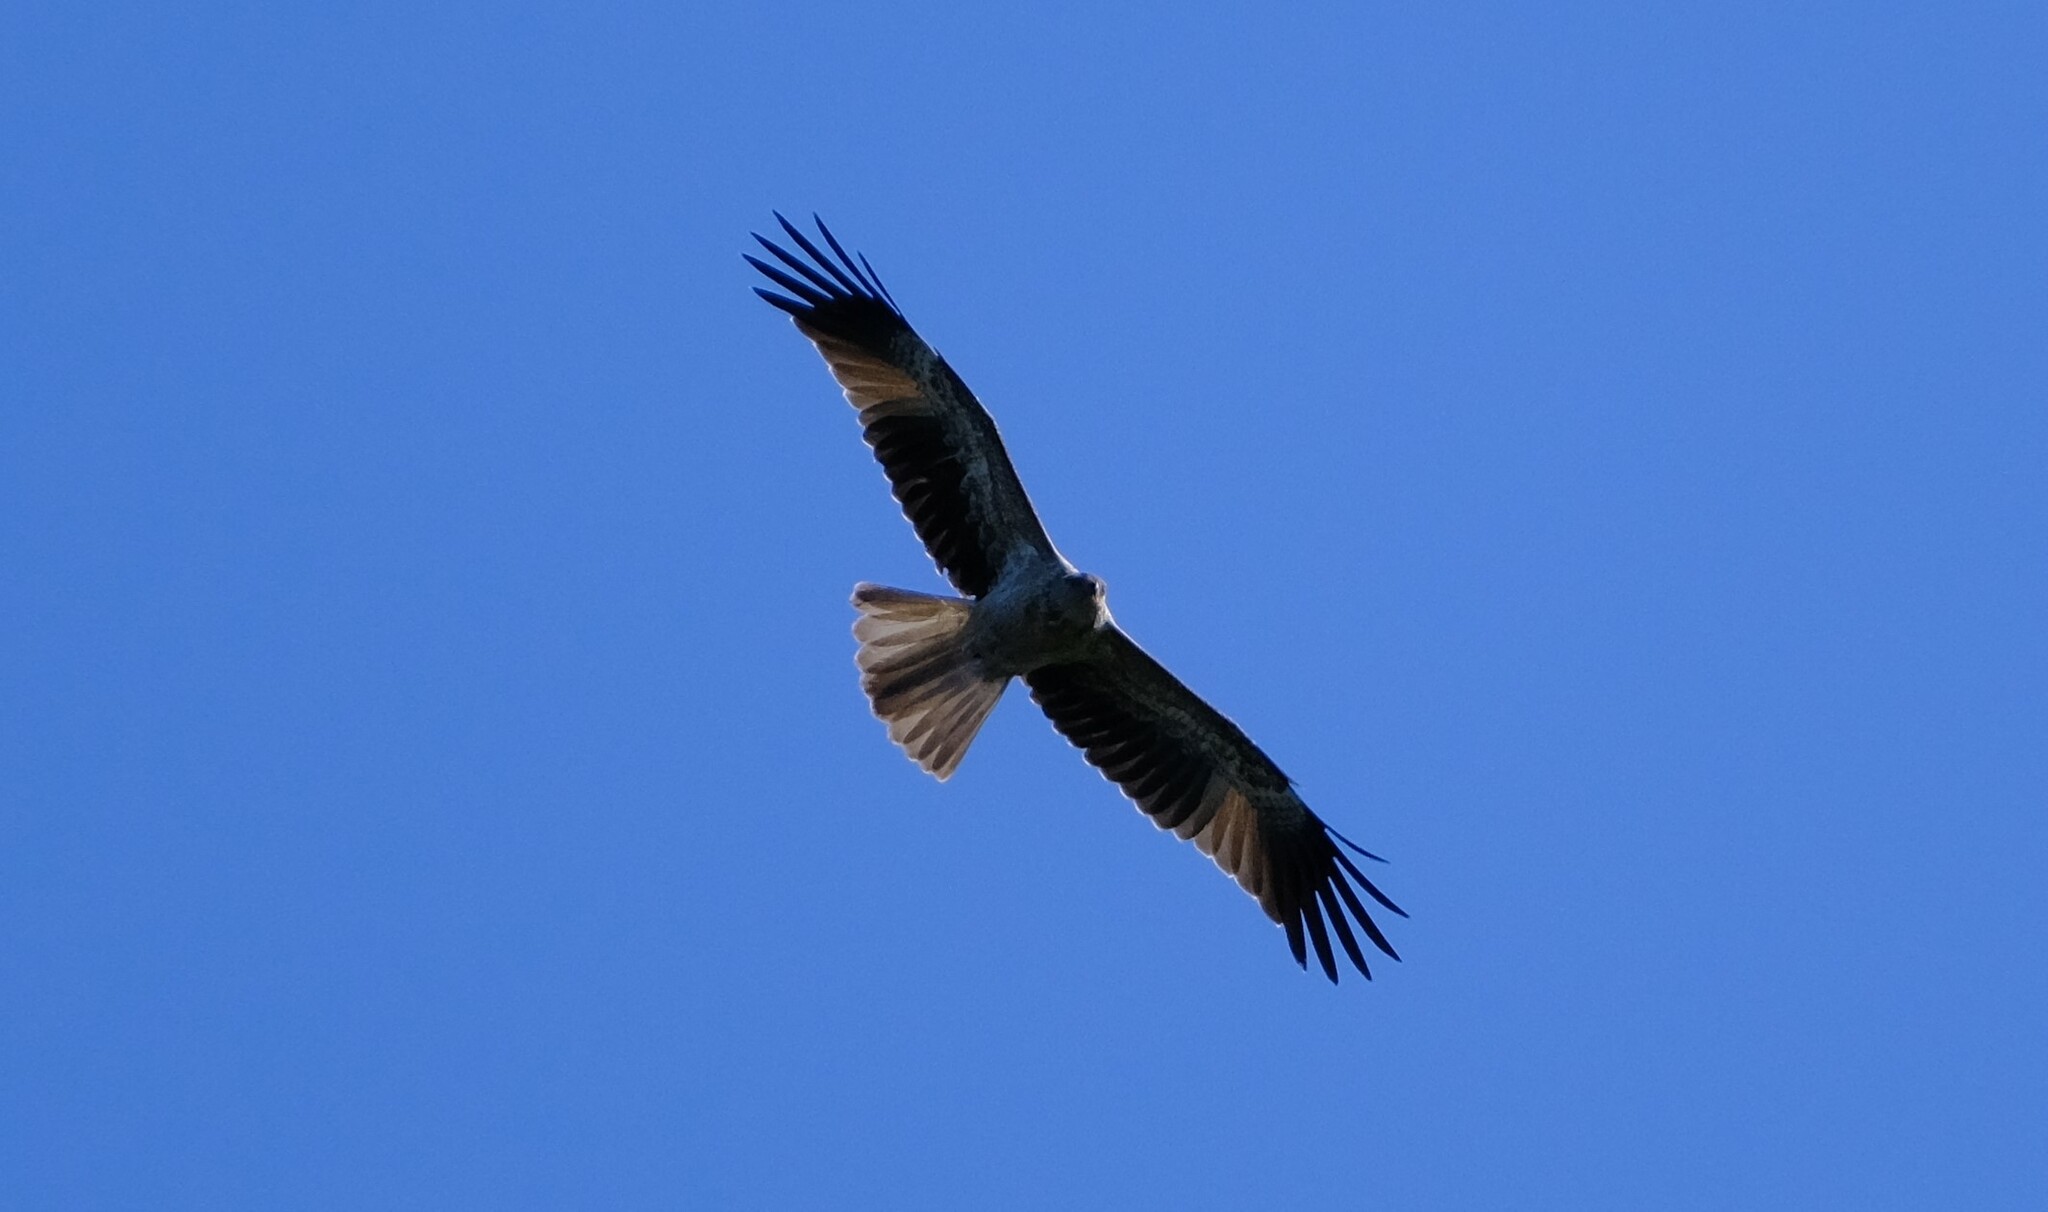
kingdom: Animalia
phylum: Chordata
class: Aves
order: Accipitriformes
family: Accipitridae
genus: Haliastur
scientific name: Haliastur sphenurus
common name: Whistling kite
